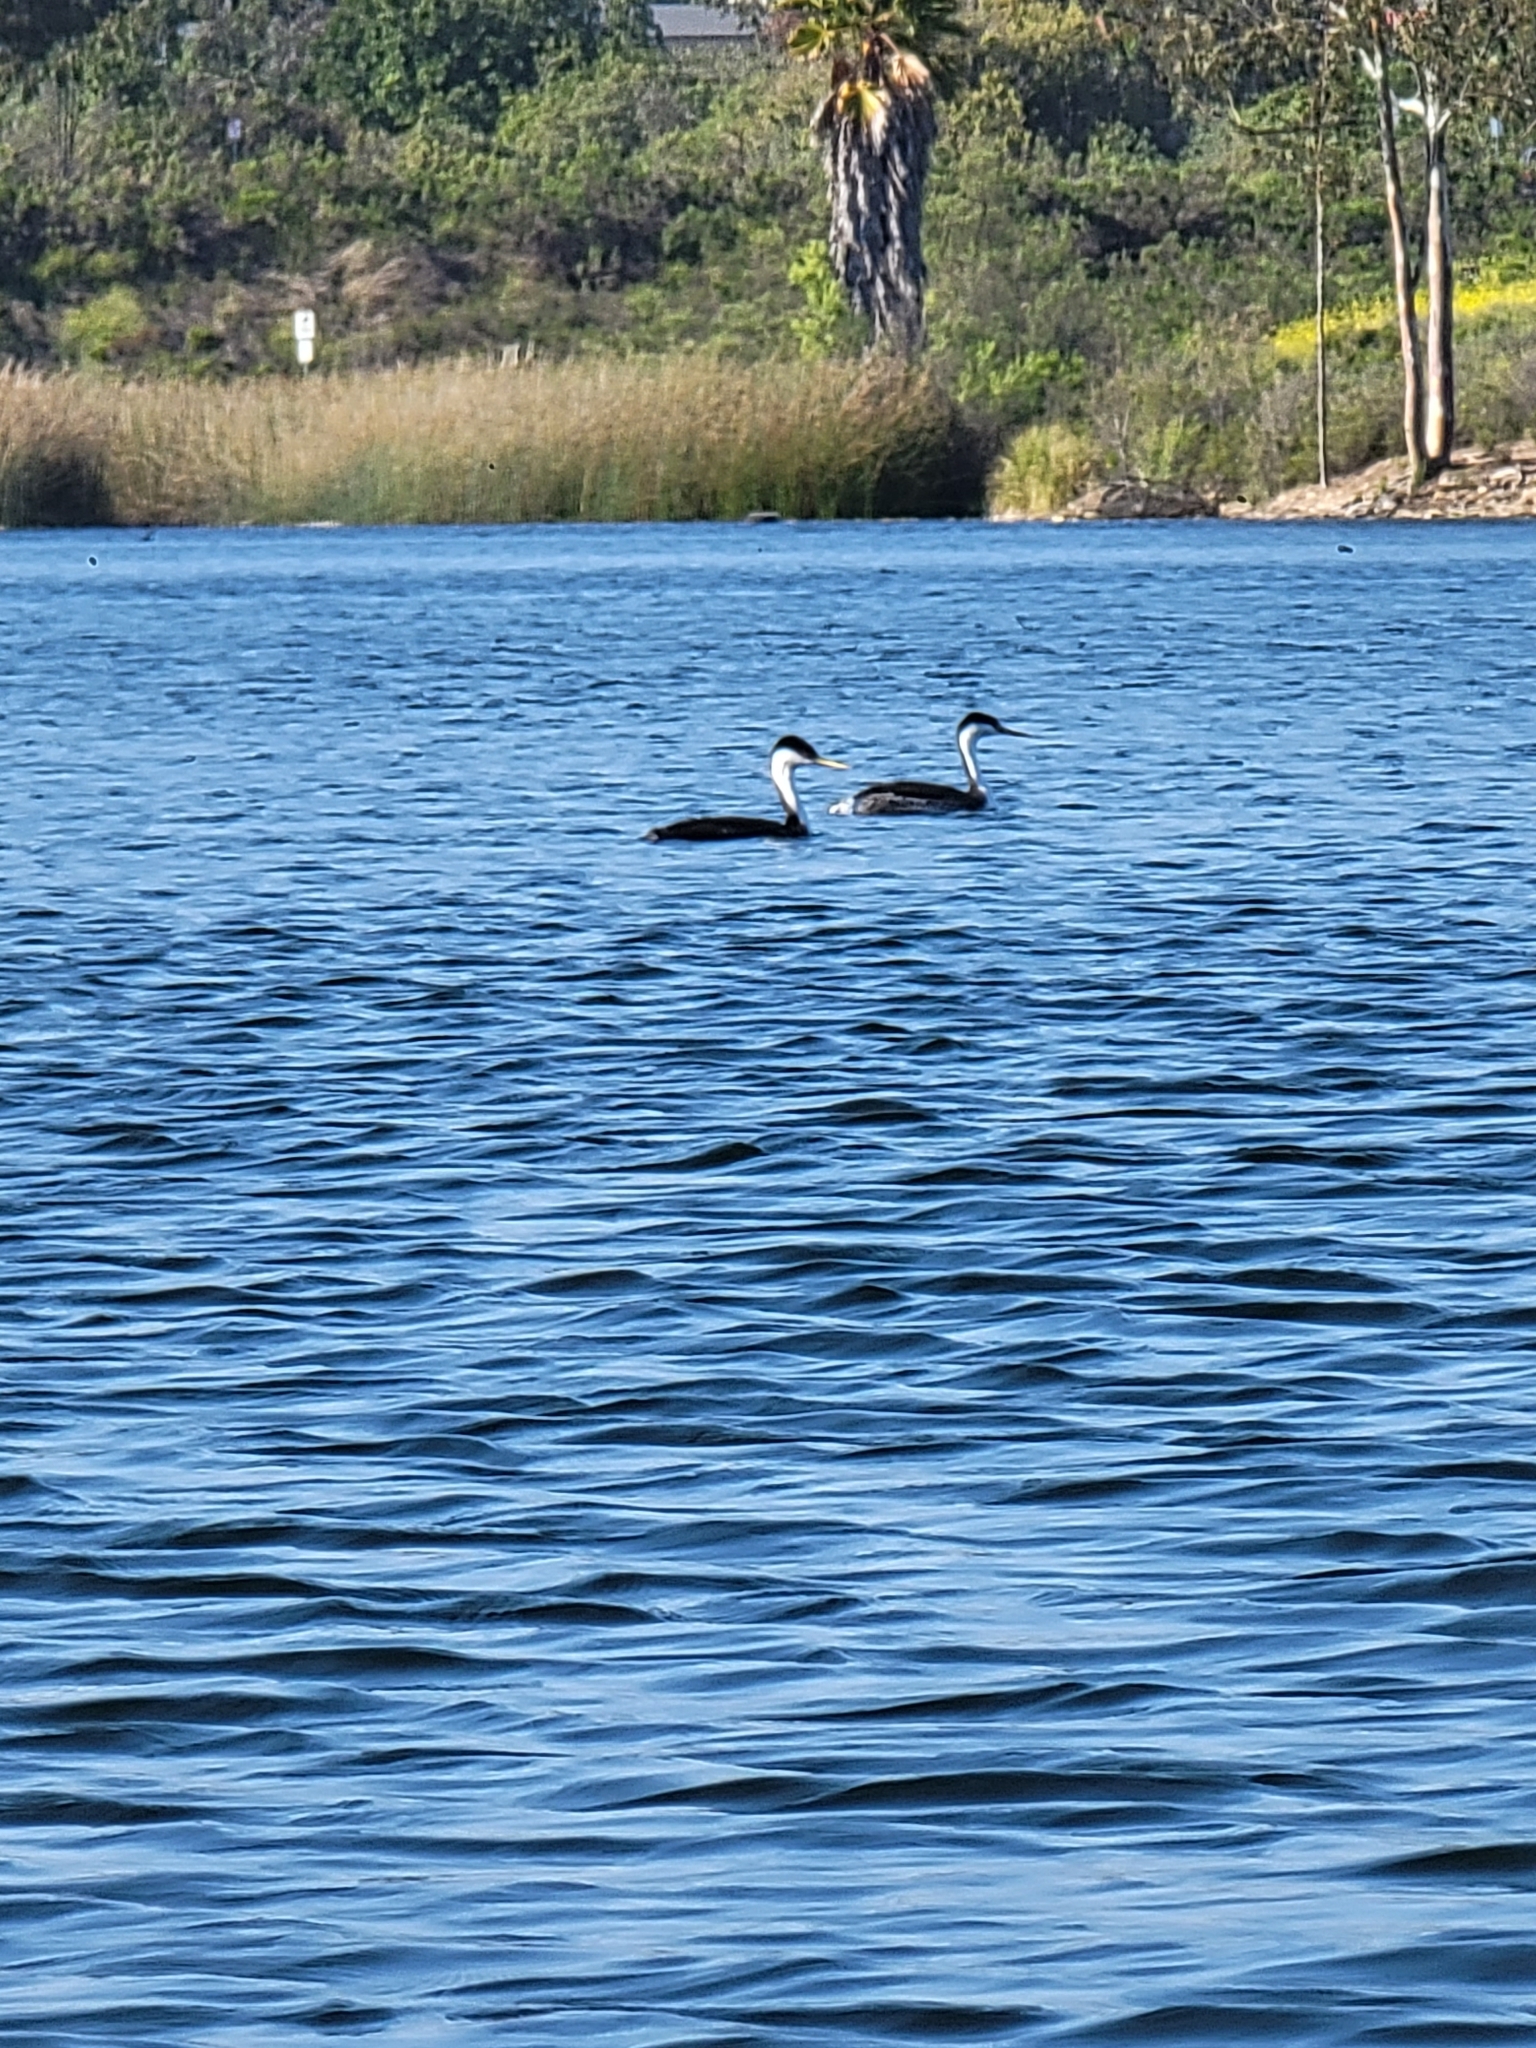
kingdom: Animalia
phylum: Chordata
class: Aves
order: Podicipediformes
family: Podicipedidae
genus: Aechmophorus
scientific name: Aechmophorus occidentalis
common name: Western grebe
